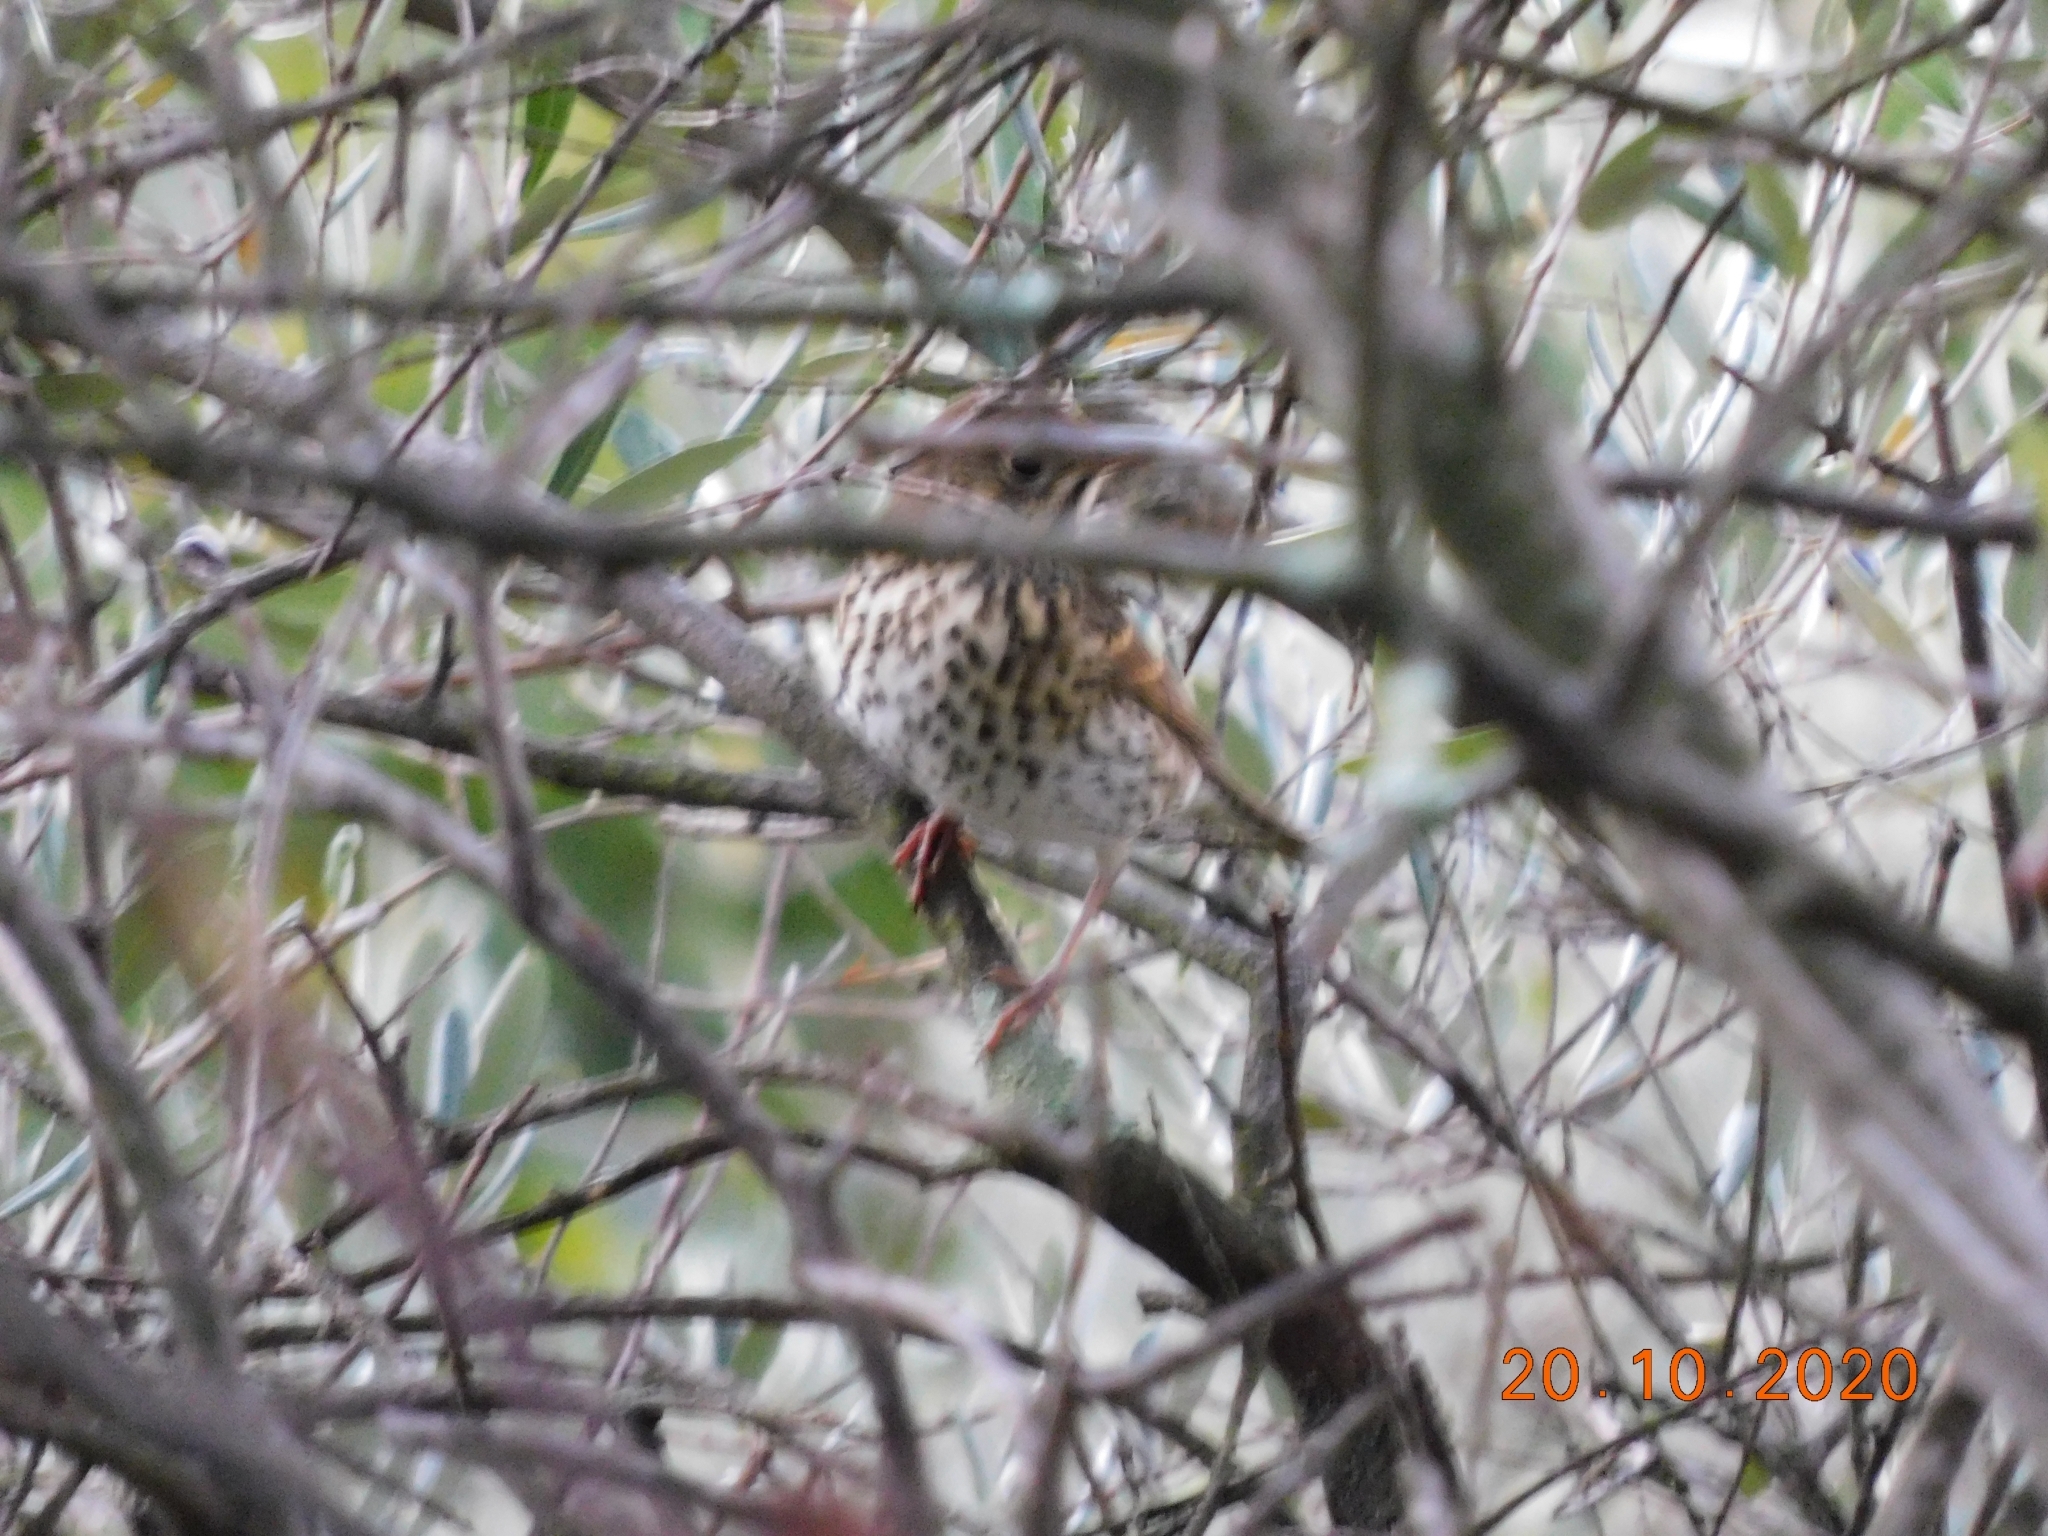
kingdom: Animalia
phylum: Chordata
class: Aves
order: Passeriformes
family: Turdidae
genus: Turdus
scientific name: Turdus philomelos
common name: Song thrush
